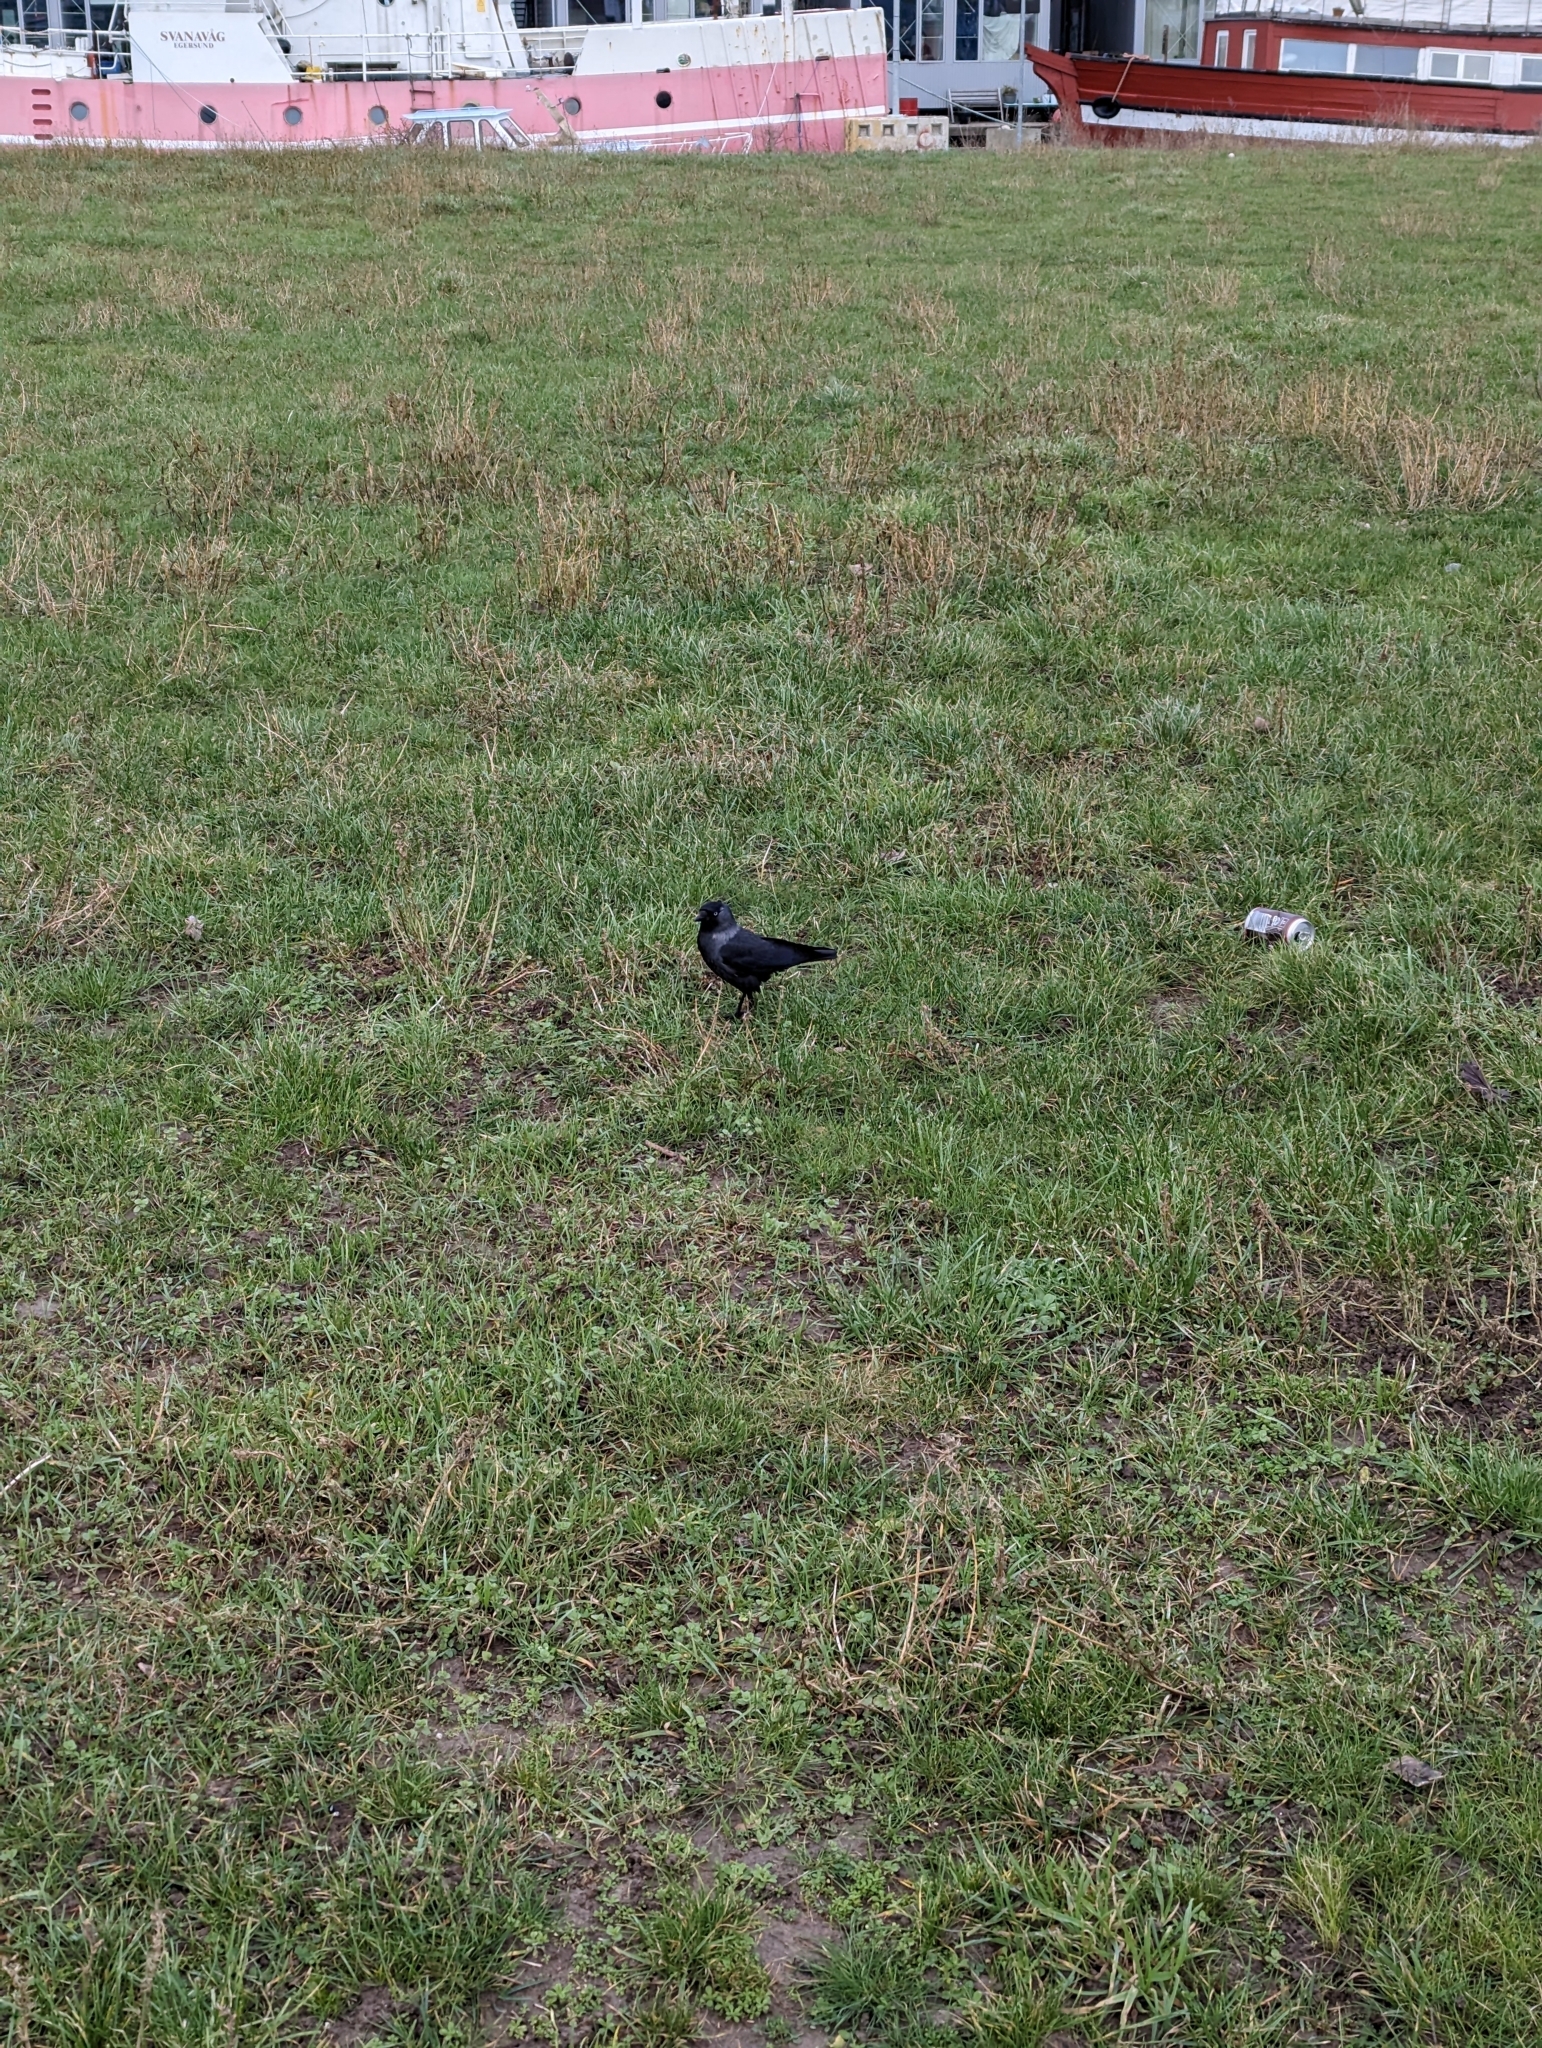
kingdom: Animalia
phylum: Chordata
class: Aves
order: Passeriformes
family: Corvidae
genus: Coloeus
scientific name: Coloeus monedula
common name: Western jackdaw
